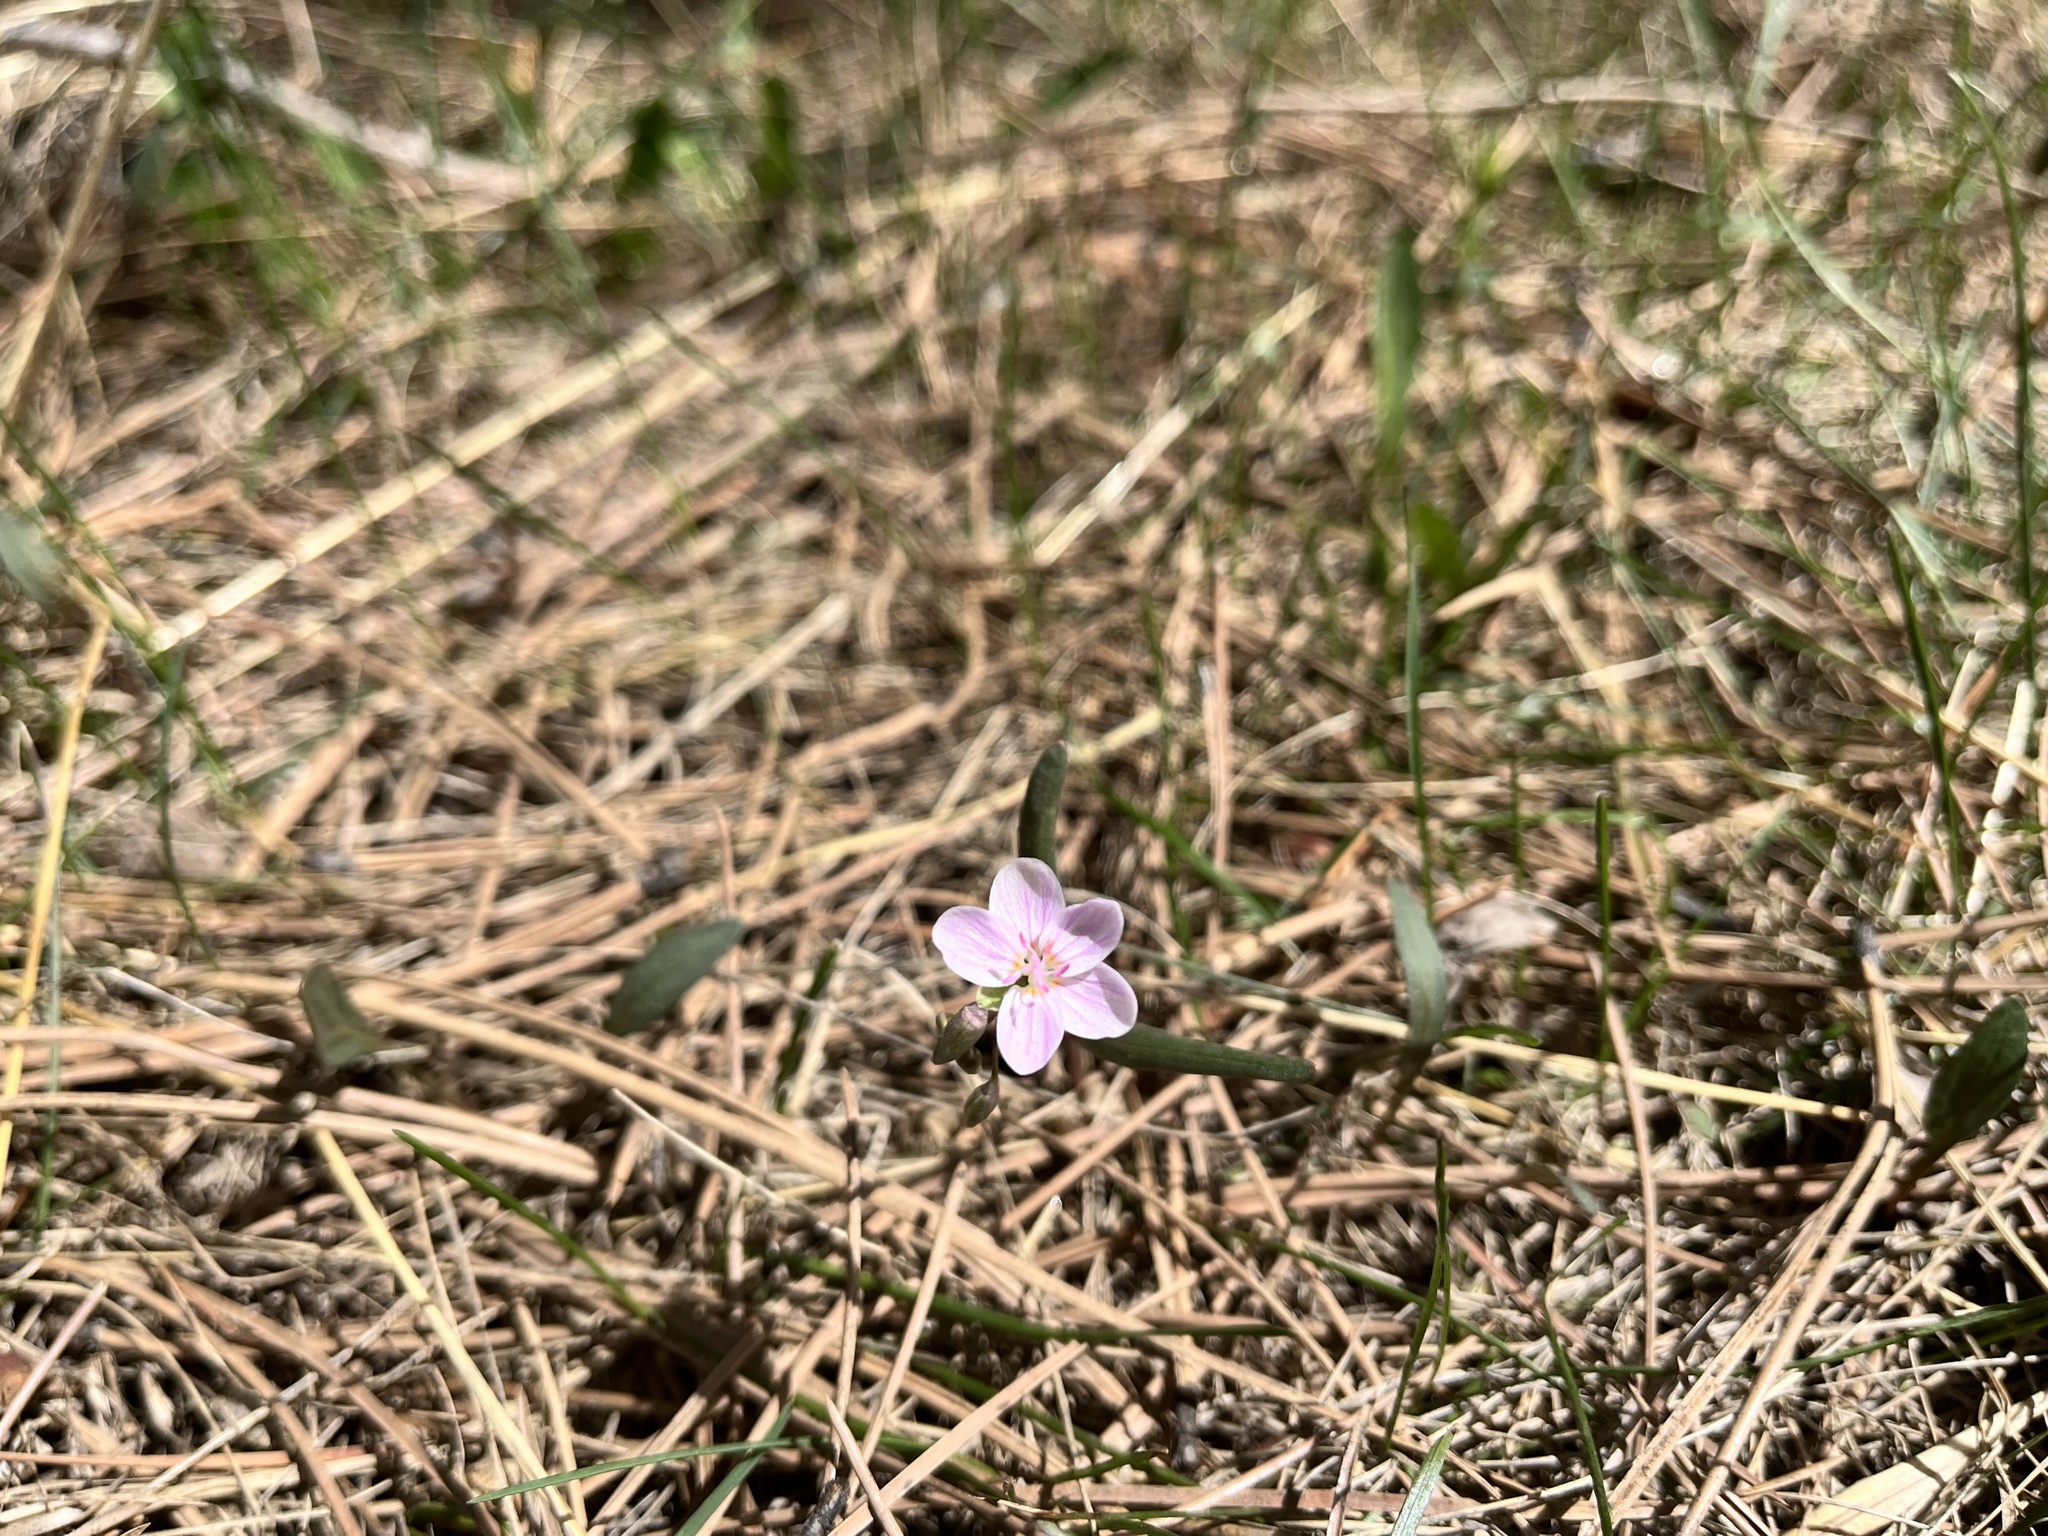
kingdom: Plantae
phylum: Tracheophyta
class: Magnoliopsida
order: Caryophyllales
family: Montiaceae
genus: Claytonia
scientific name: Claytonia rosea
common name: Rocky mountain spring-beauty
